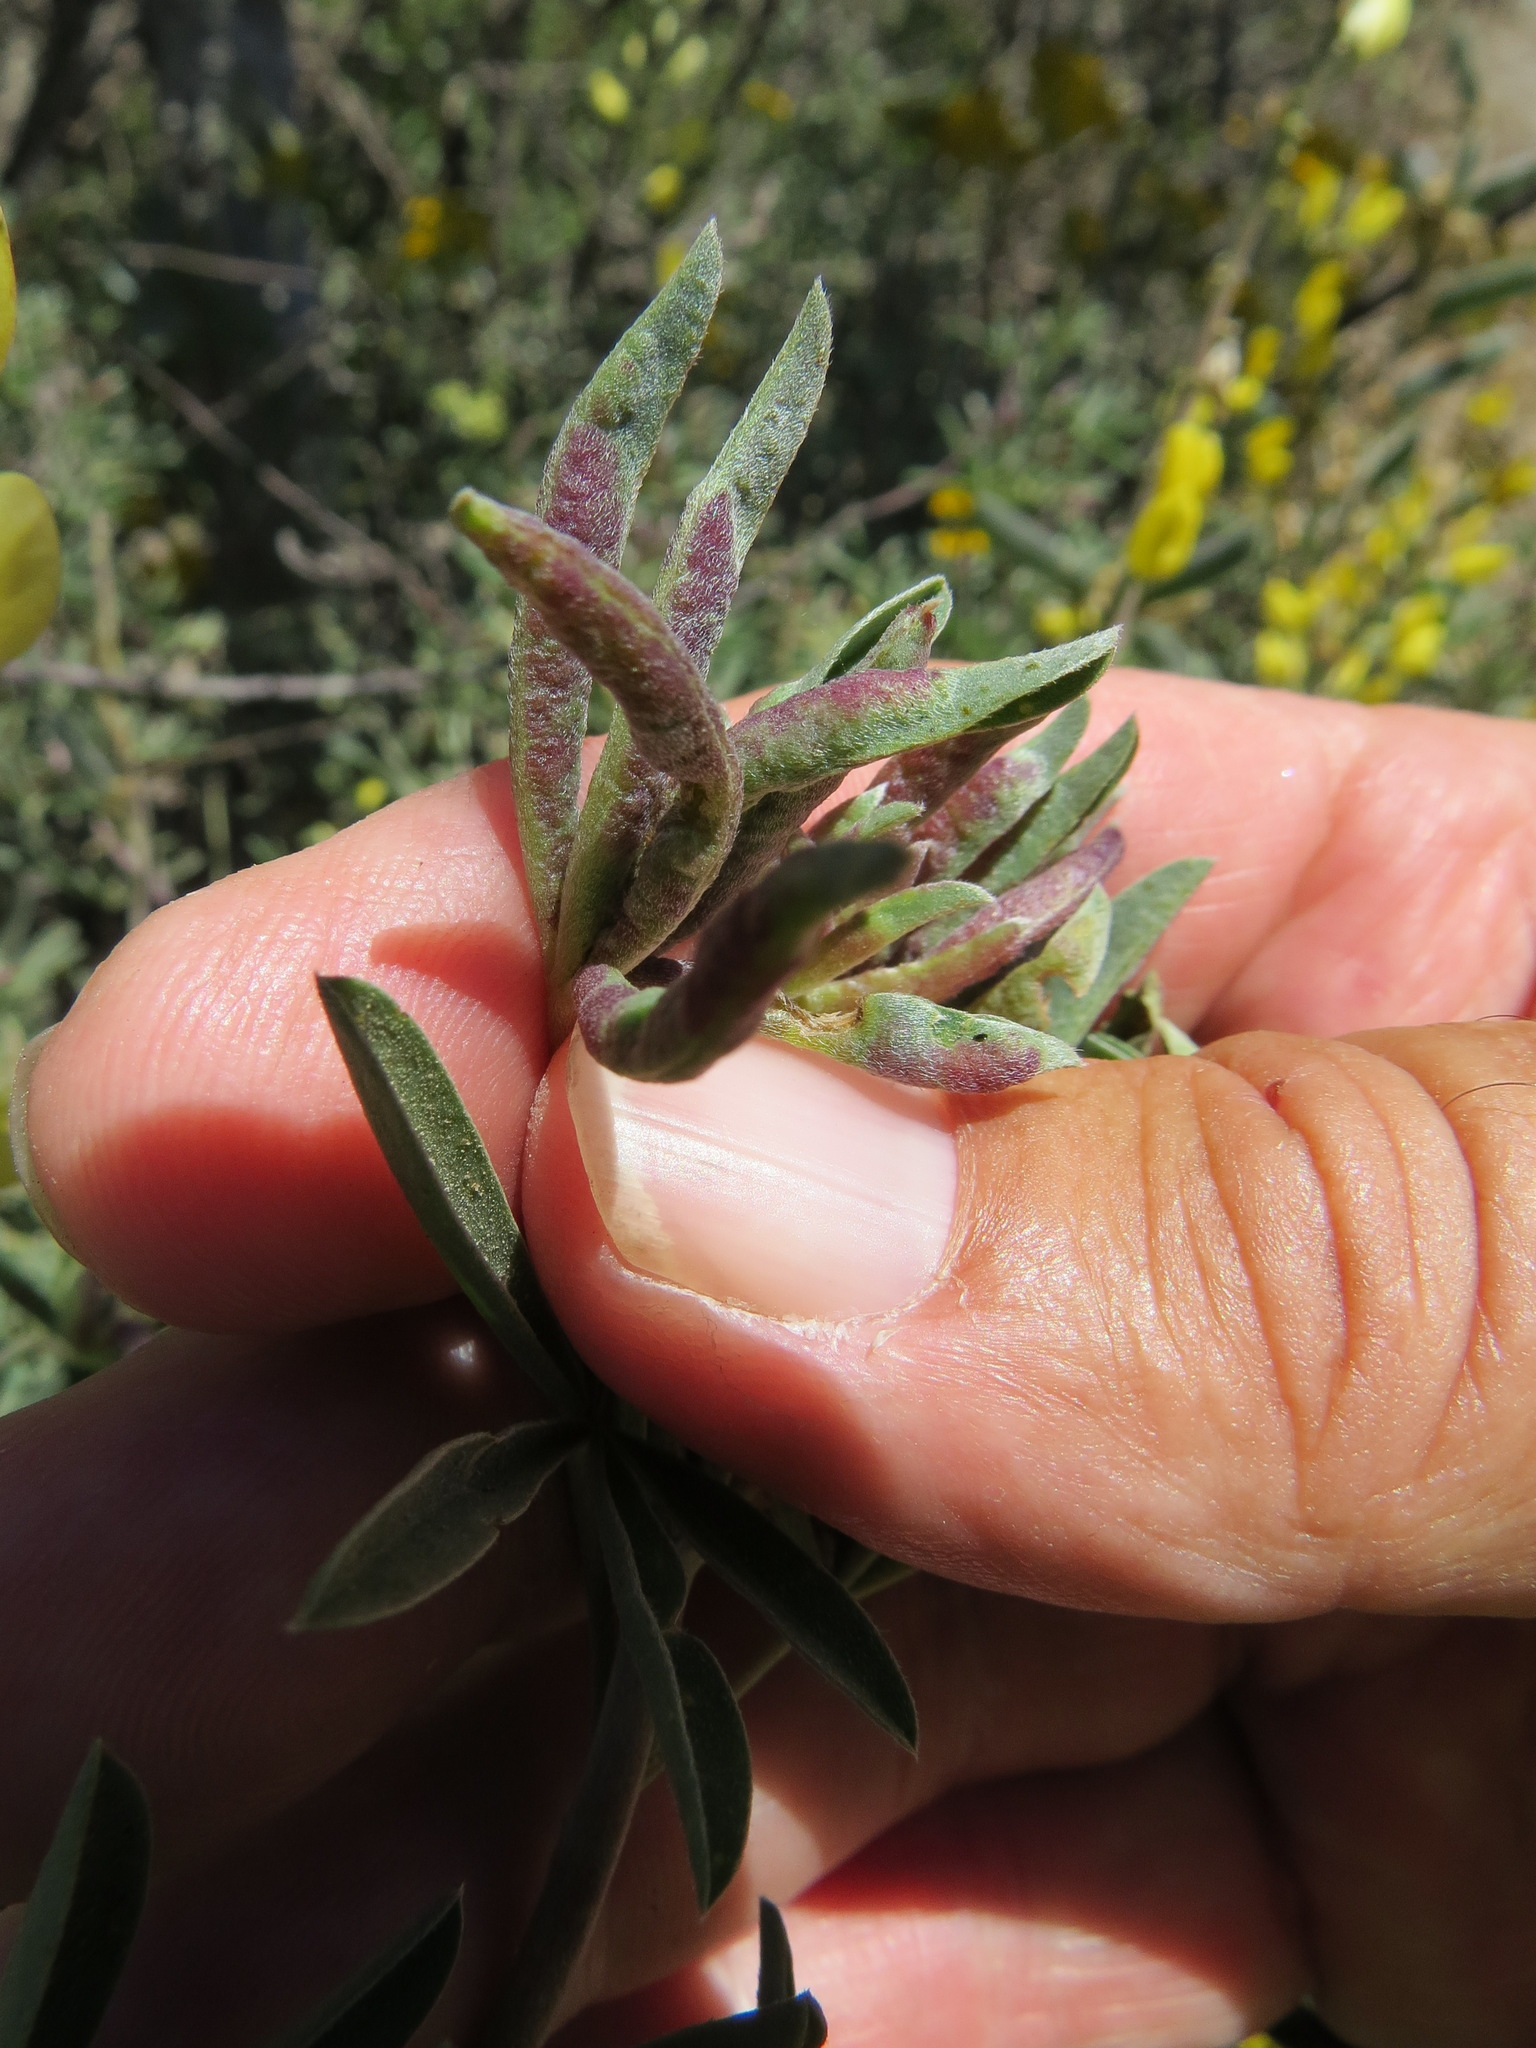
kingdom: Animalia
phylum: Arthropoda
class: Insecta
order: Diptera
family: Cecidomyiidae
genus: Dasineura
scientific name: Dasineura lupinorum
